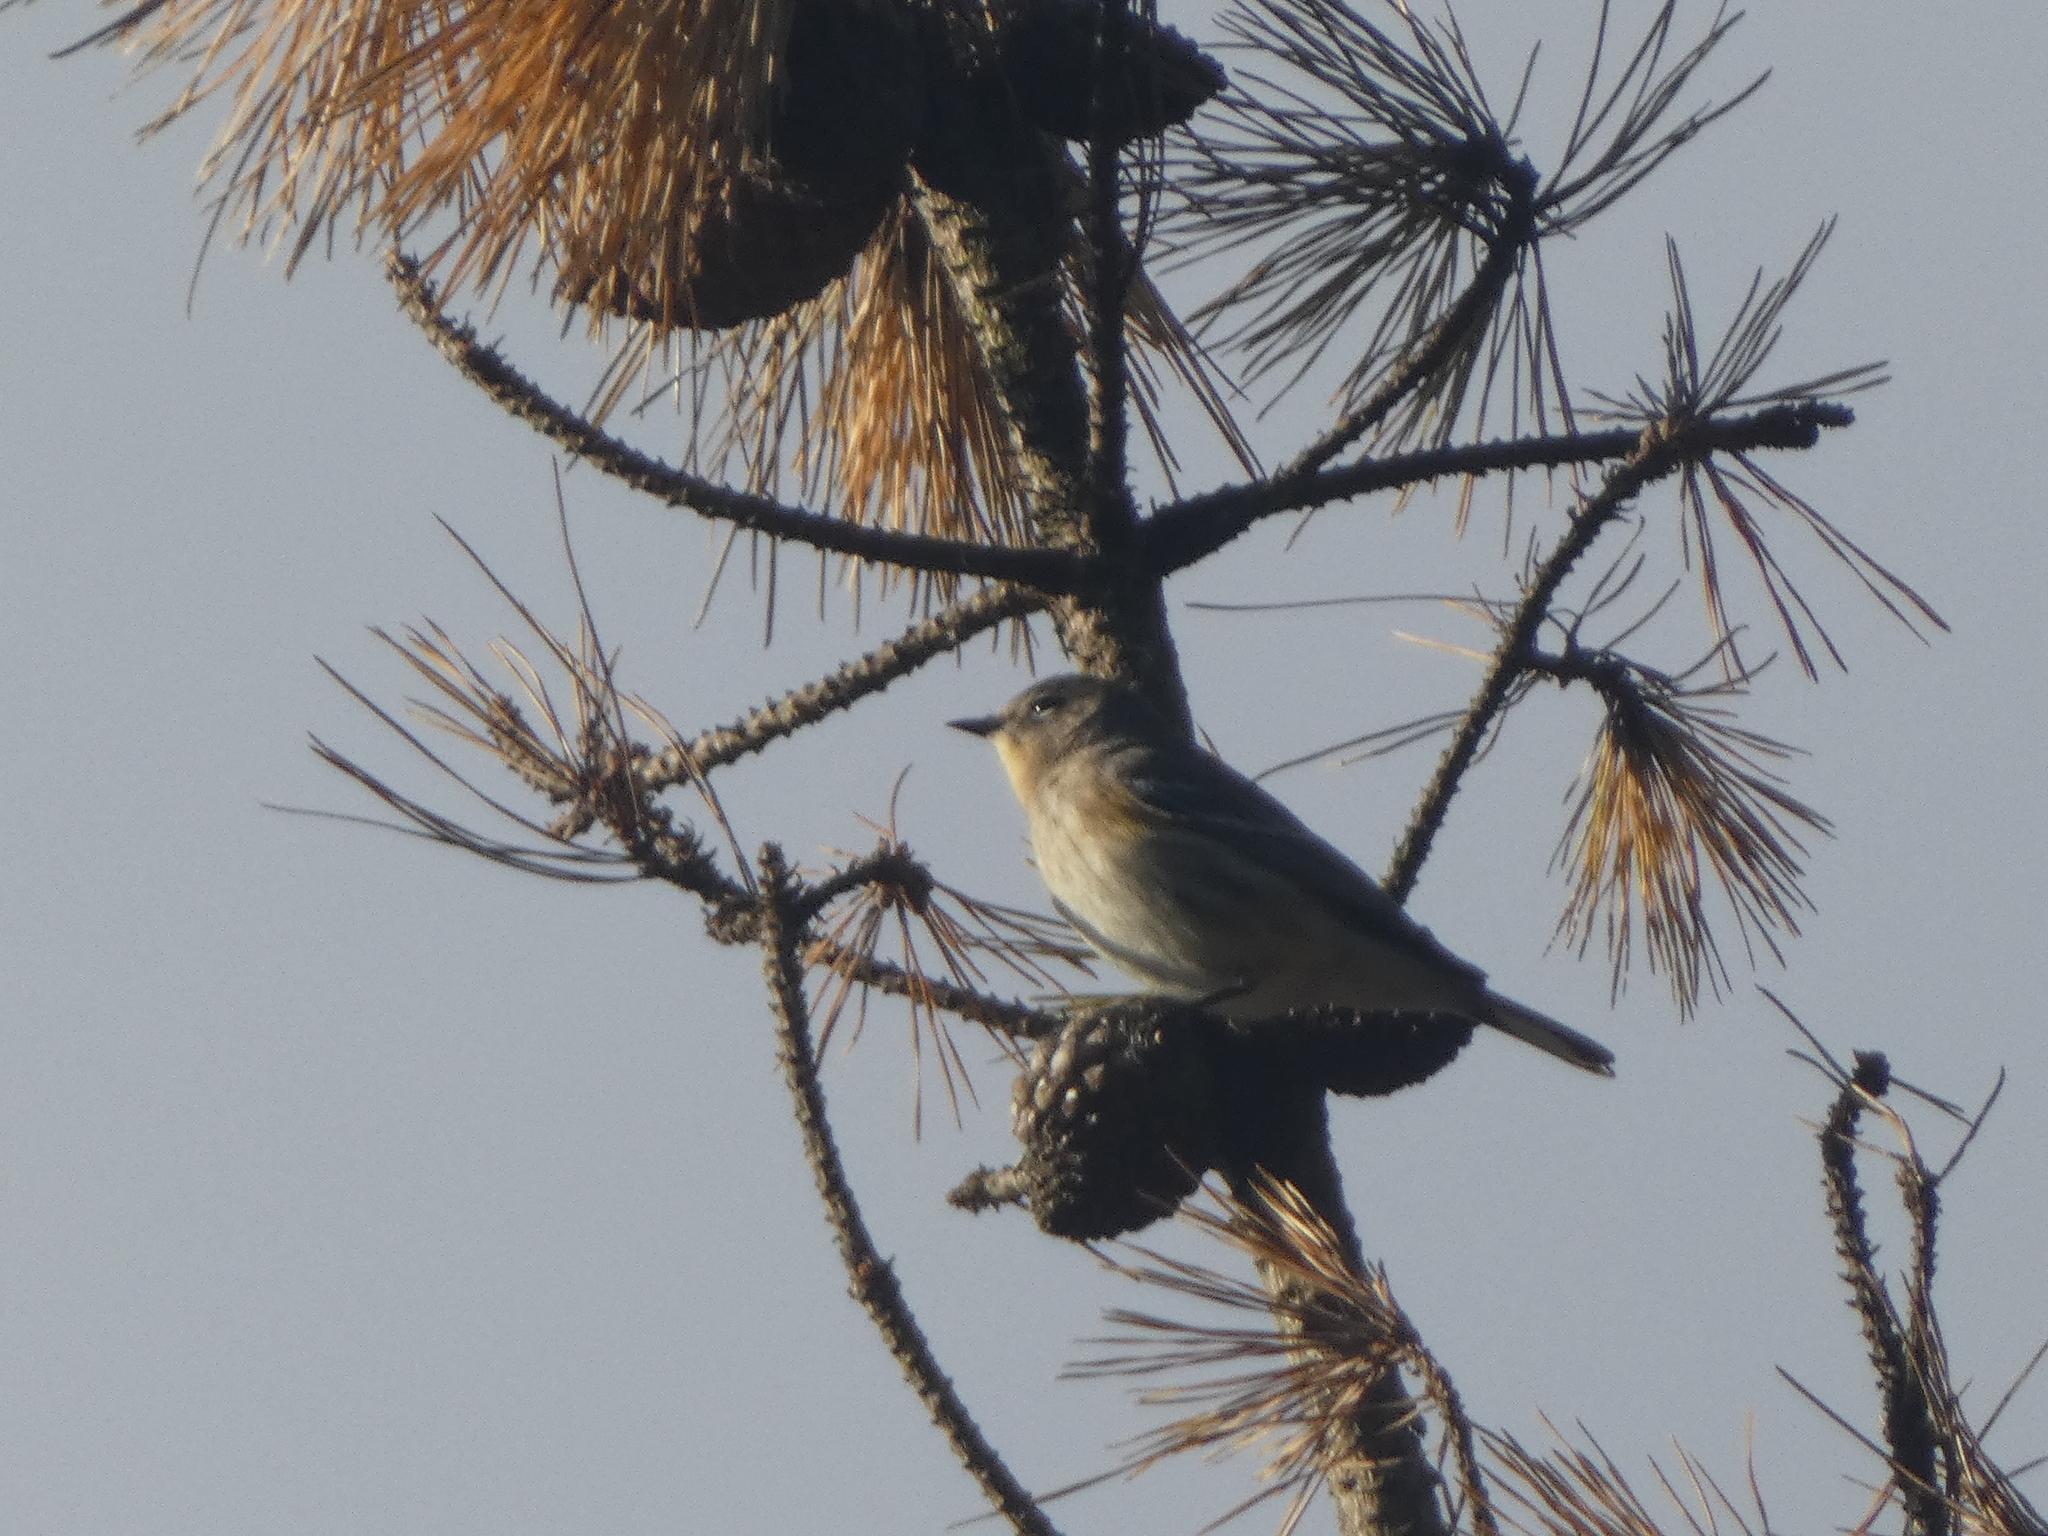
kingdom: Animalia
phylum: Chordata
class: Aves
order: Passeriformes
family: Turdidae
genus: Sialia
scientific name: Sialia mexicana
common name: Western bluebird
